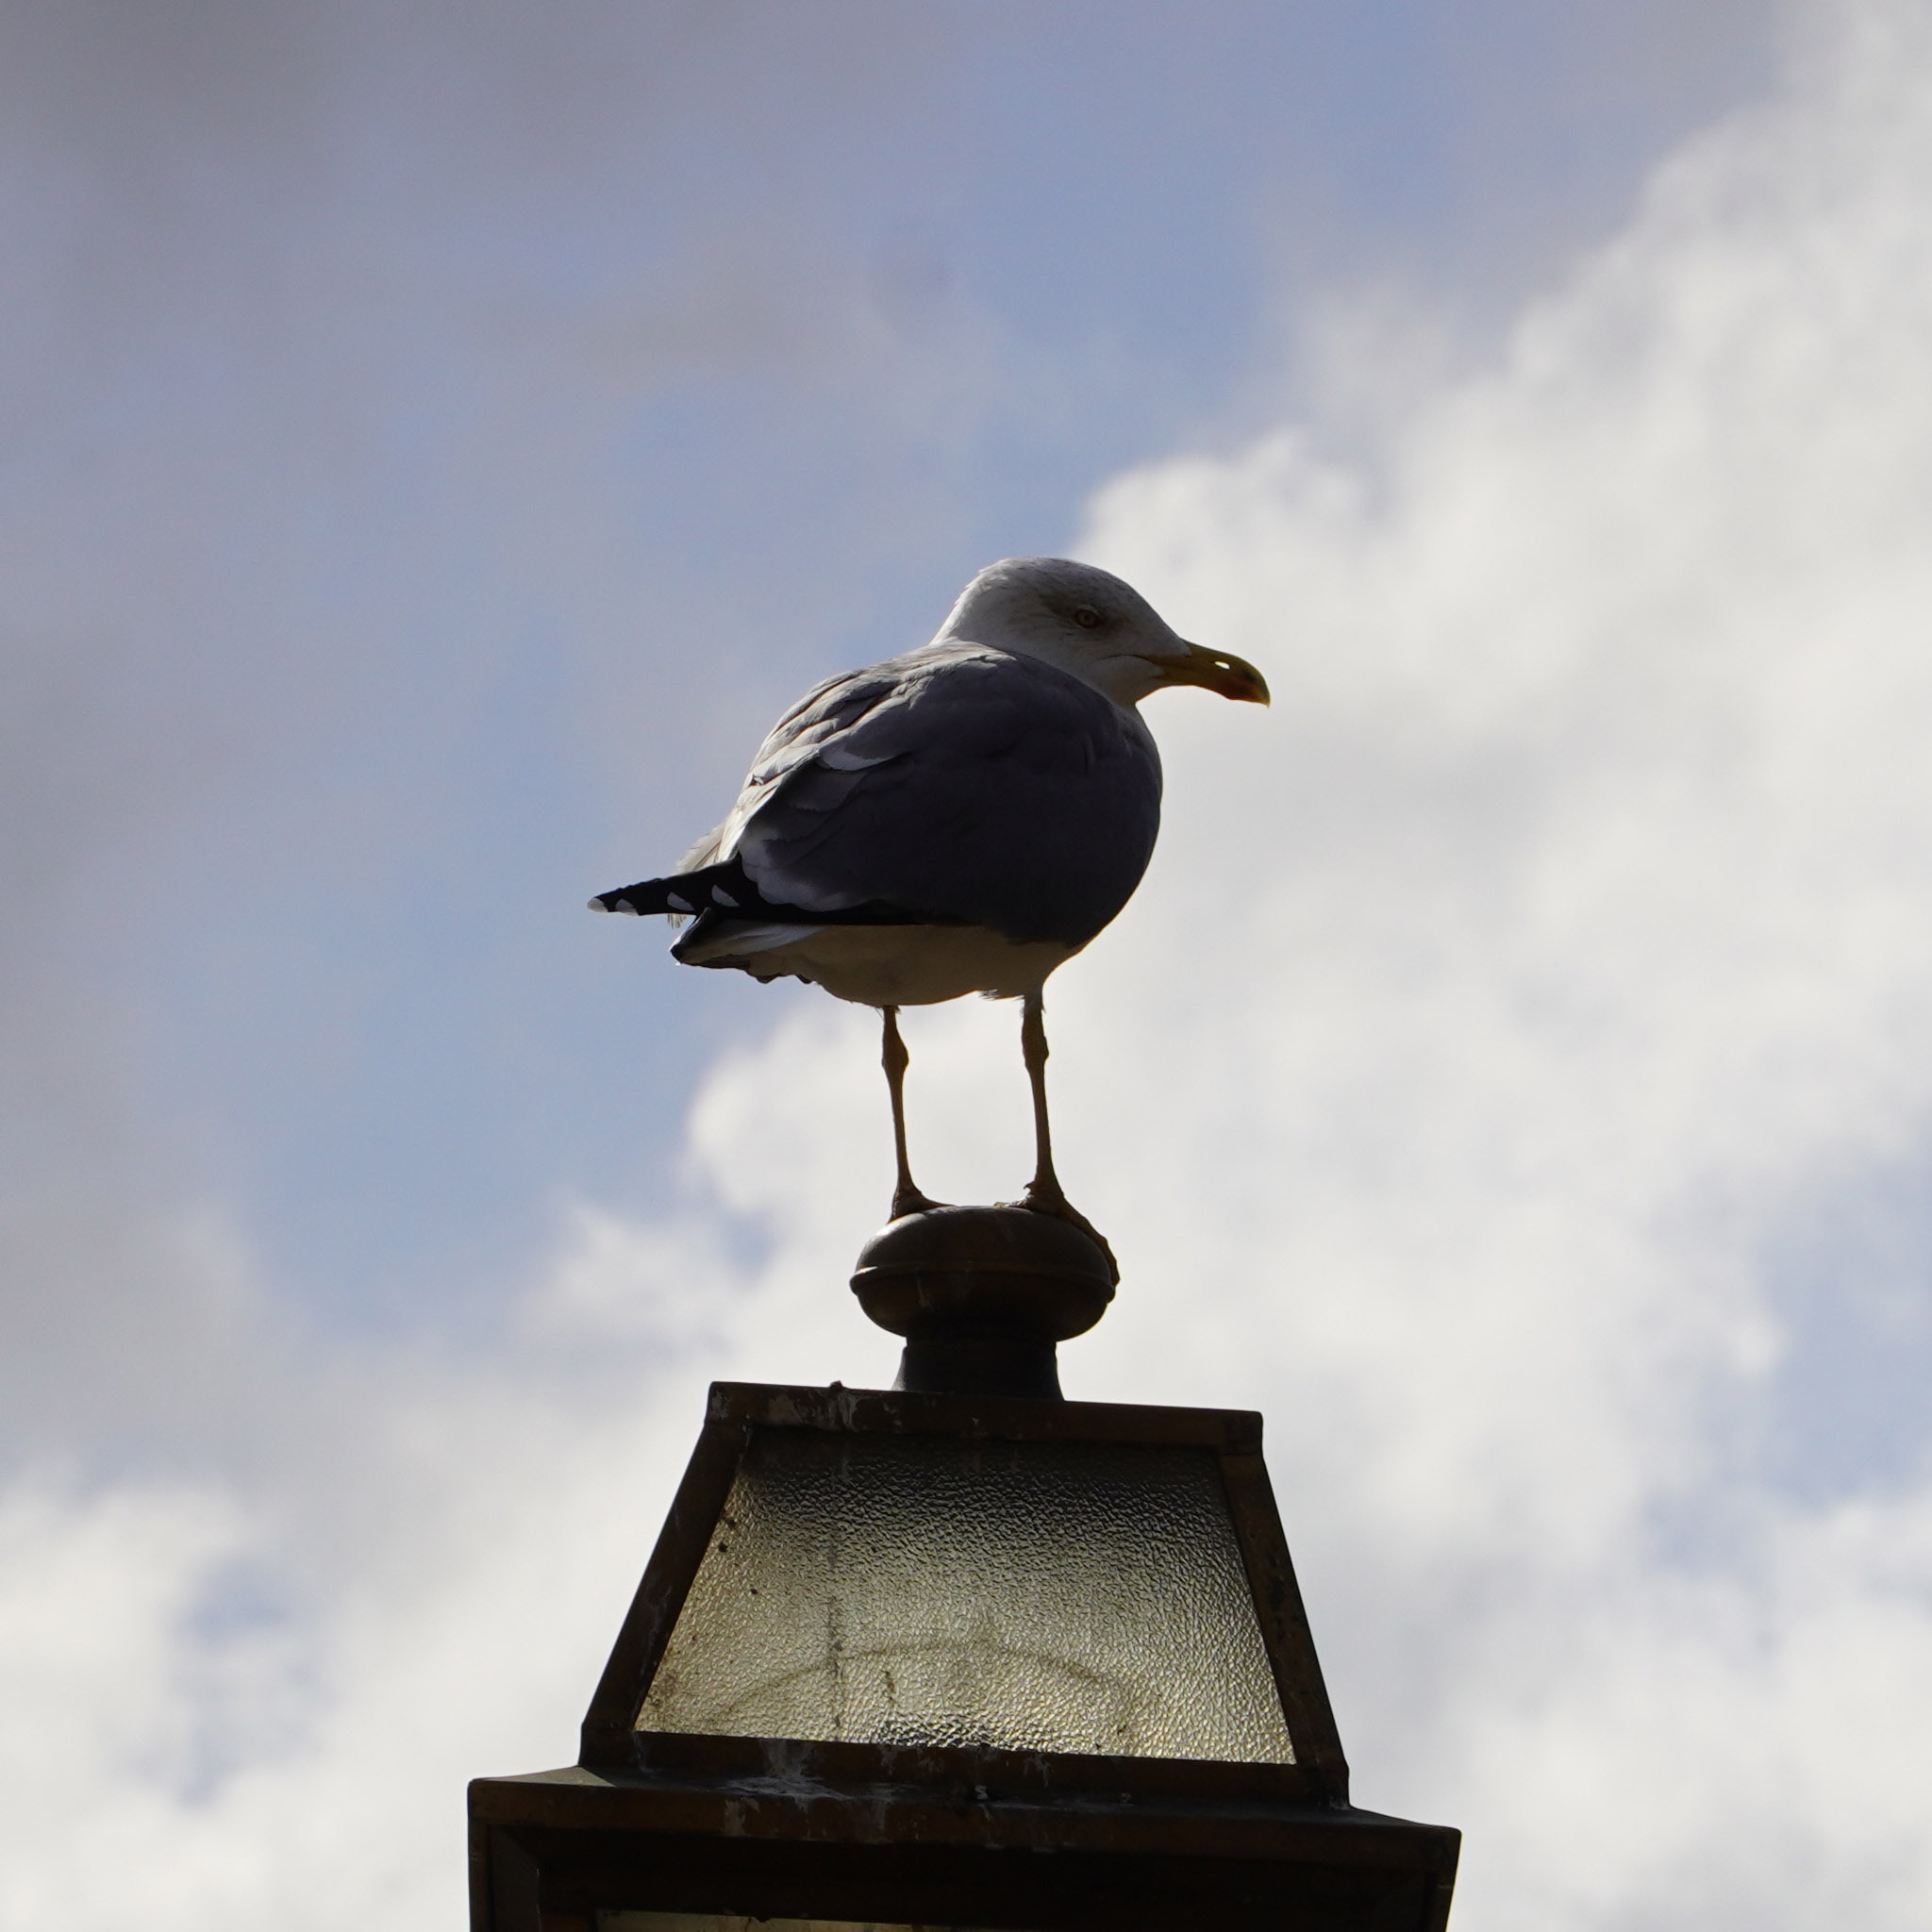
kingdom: Animalia
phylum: Chordata
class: Aves
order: Charadriiformes
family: Laridae
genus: Larus
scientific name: Larus michahellis
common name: Yellow-legged gull
